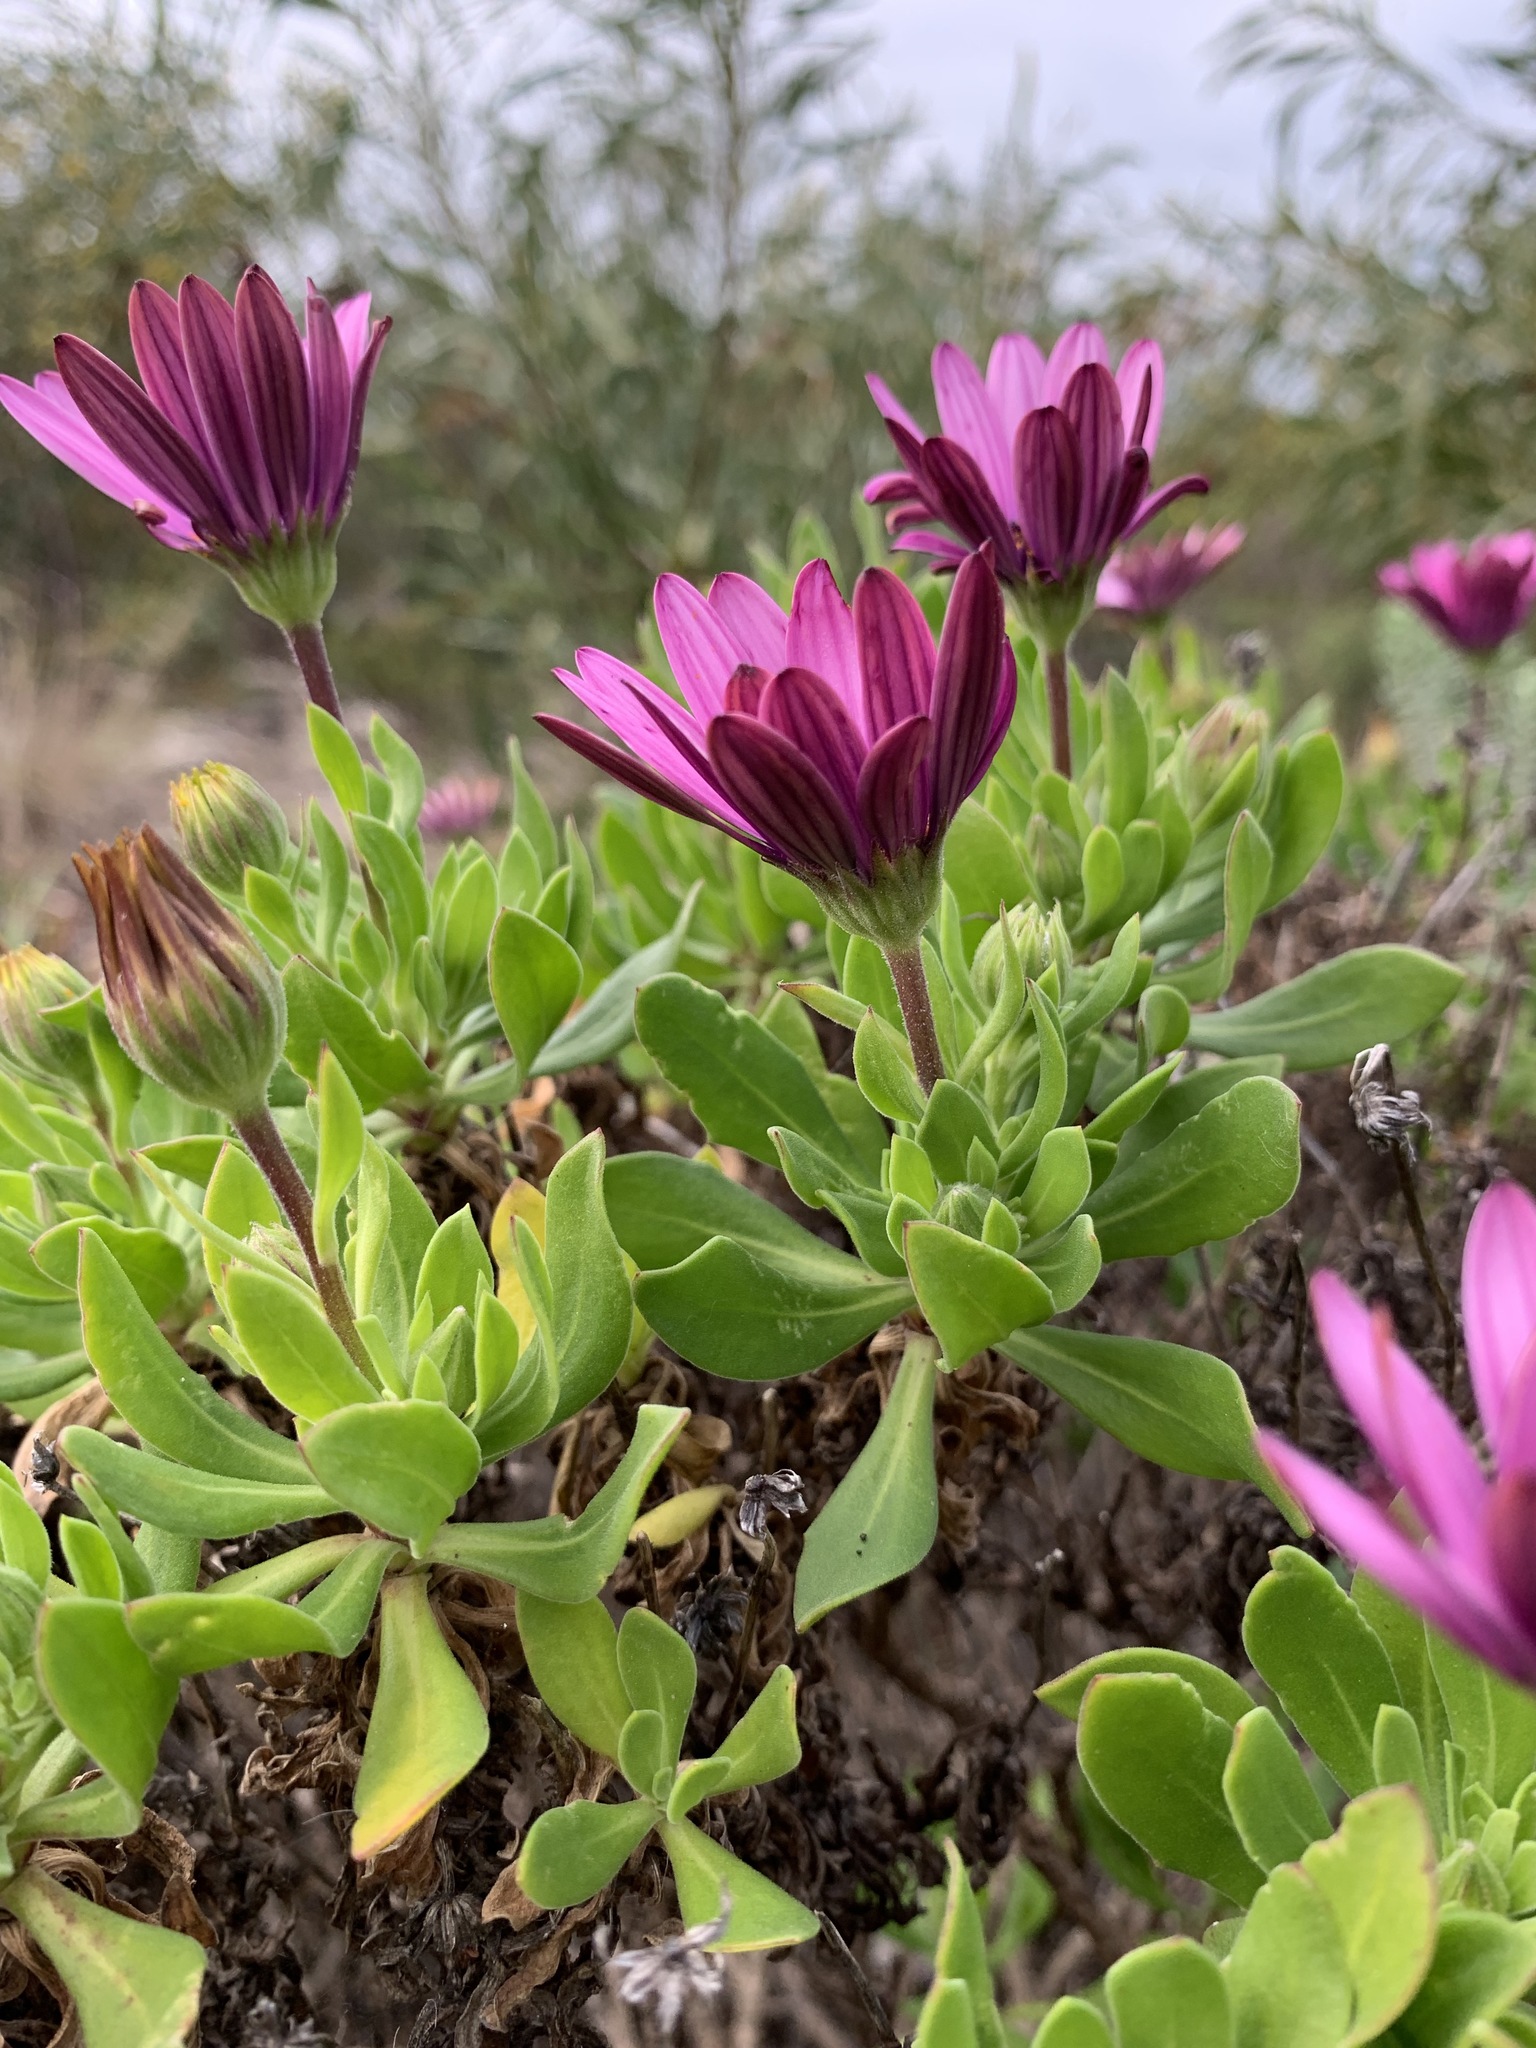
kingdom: Plantae
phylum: Tracheophyta
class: Magnoliopsida
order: Asterales
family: Asteraceae
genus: Dimorphotheca
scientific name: Dimorphotheca jucunda
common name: Osteospermum
